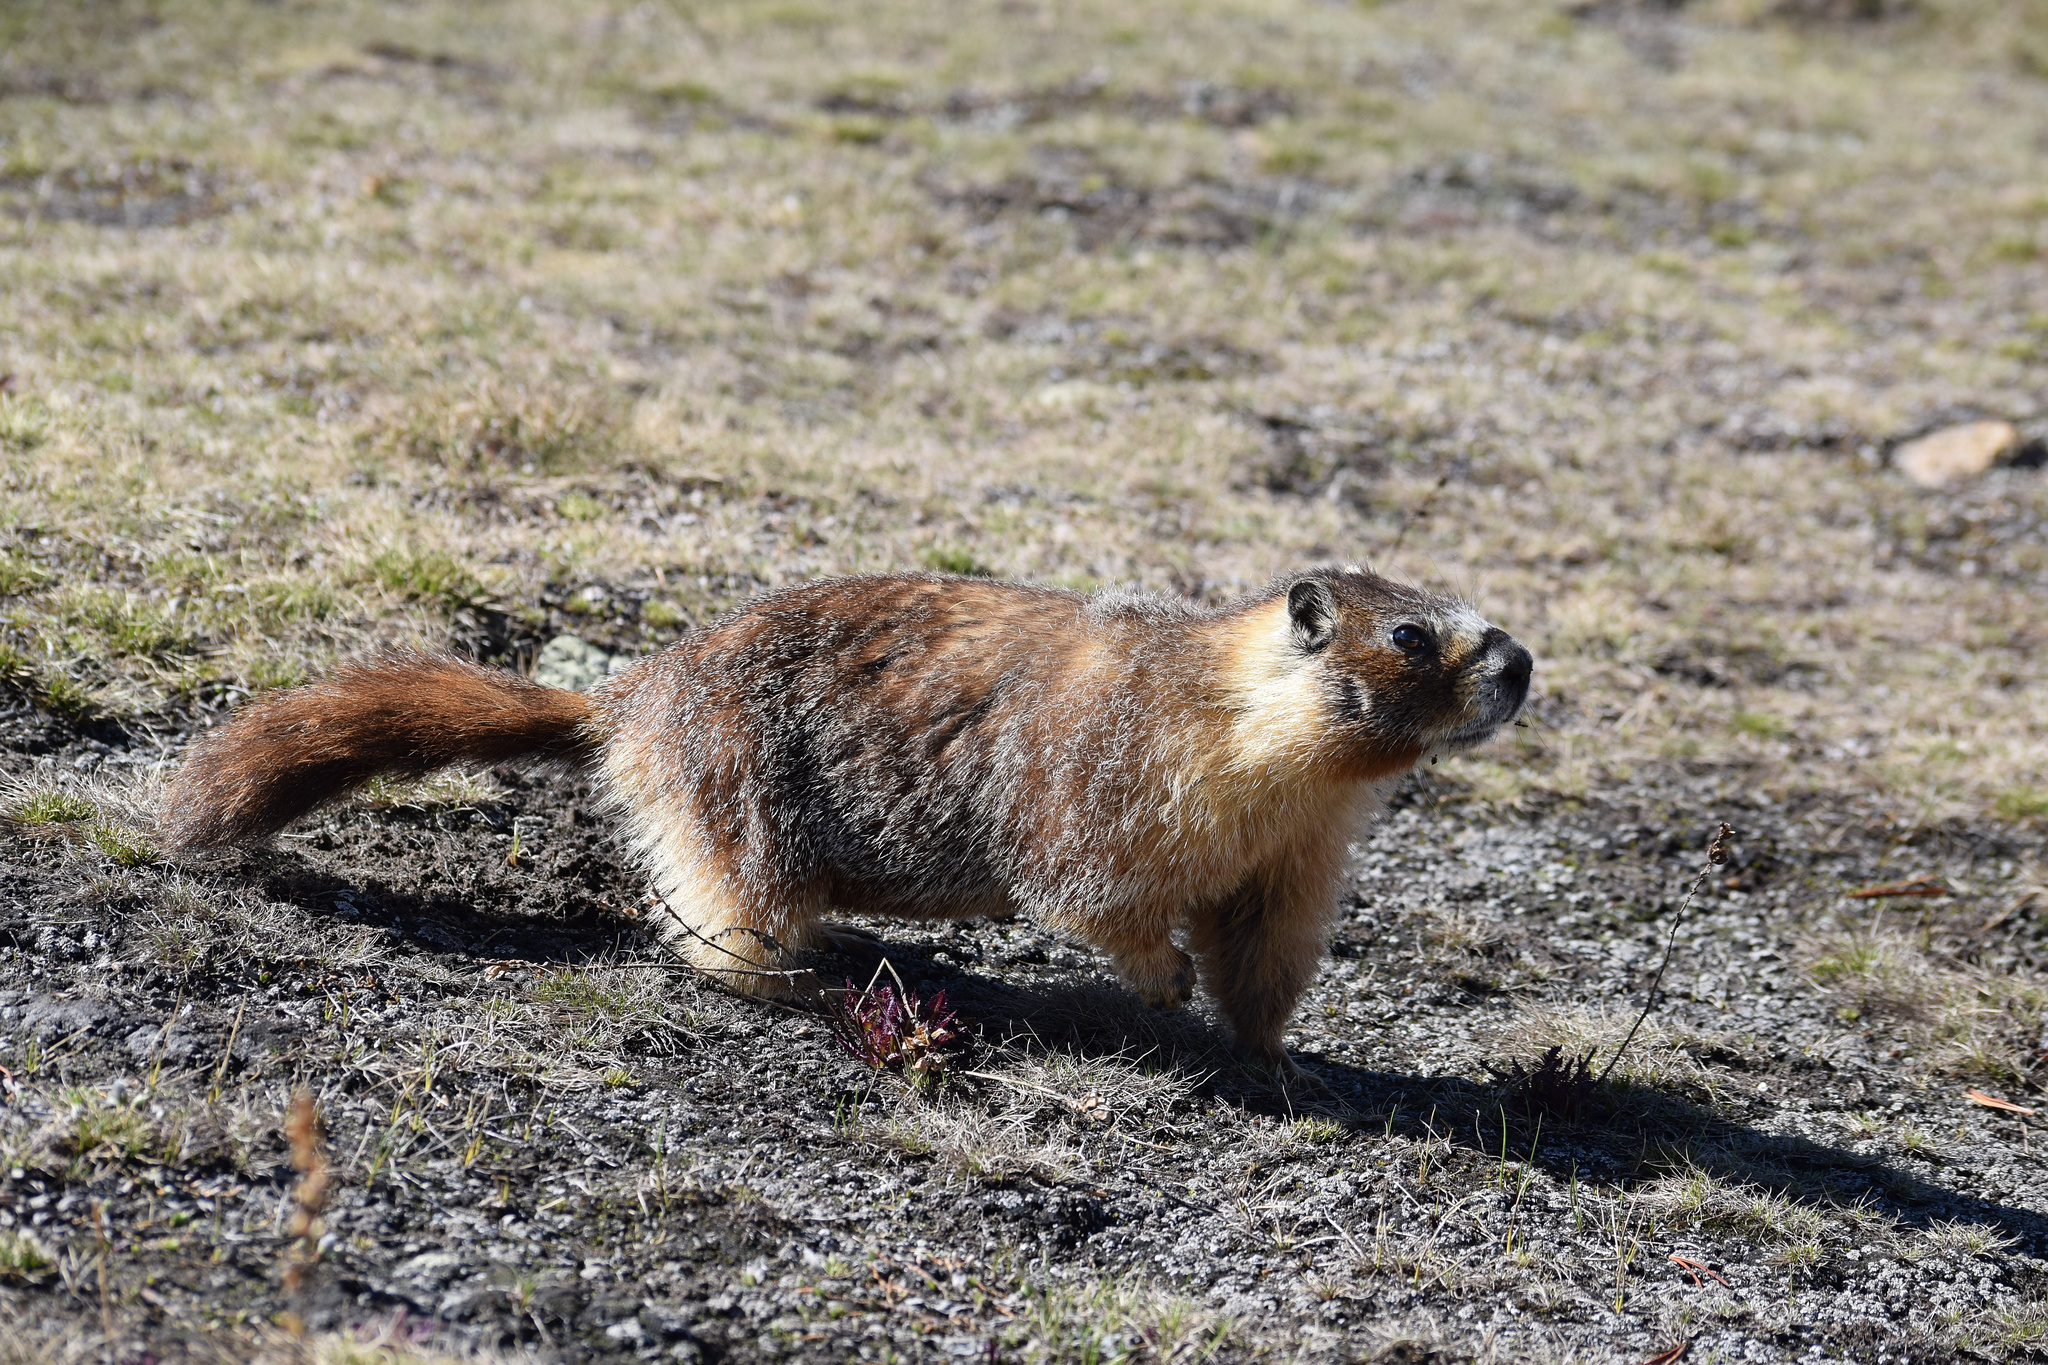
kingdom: Animalia
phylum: Chordata
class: Mammalia
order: Rodentia
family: Sciuridae
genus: Marmota
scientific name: Marmota flaviventris
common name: Yellow-bellied marmot
